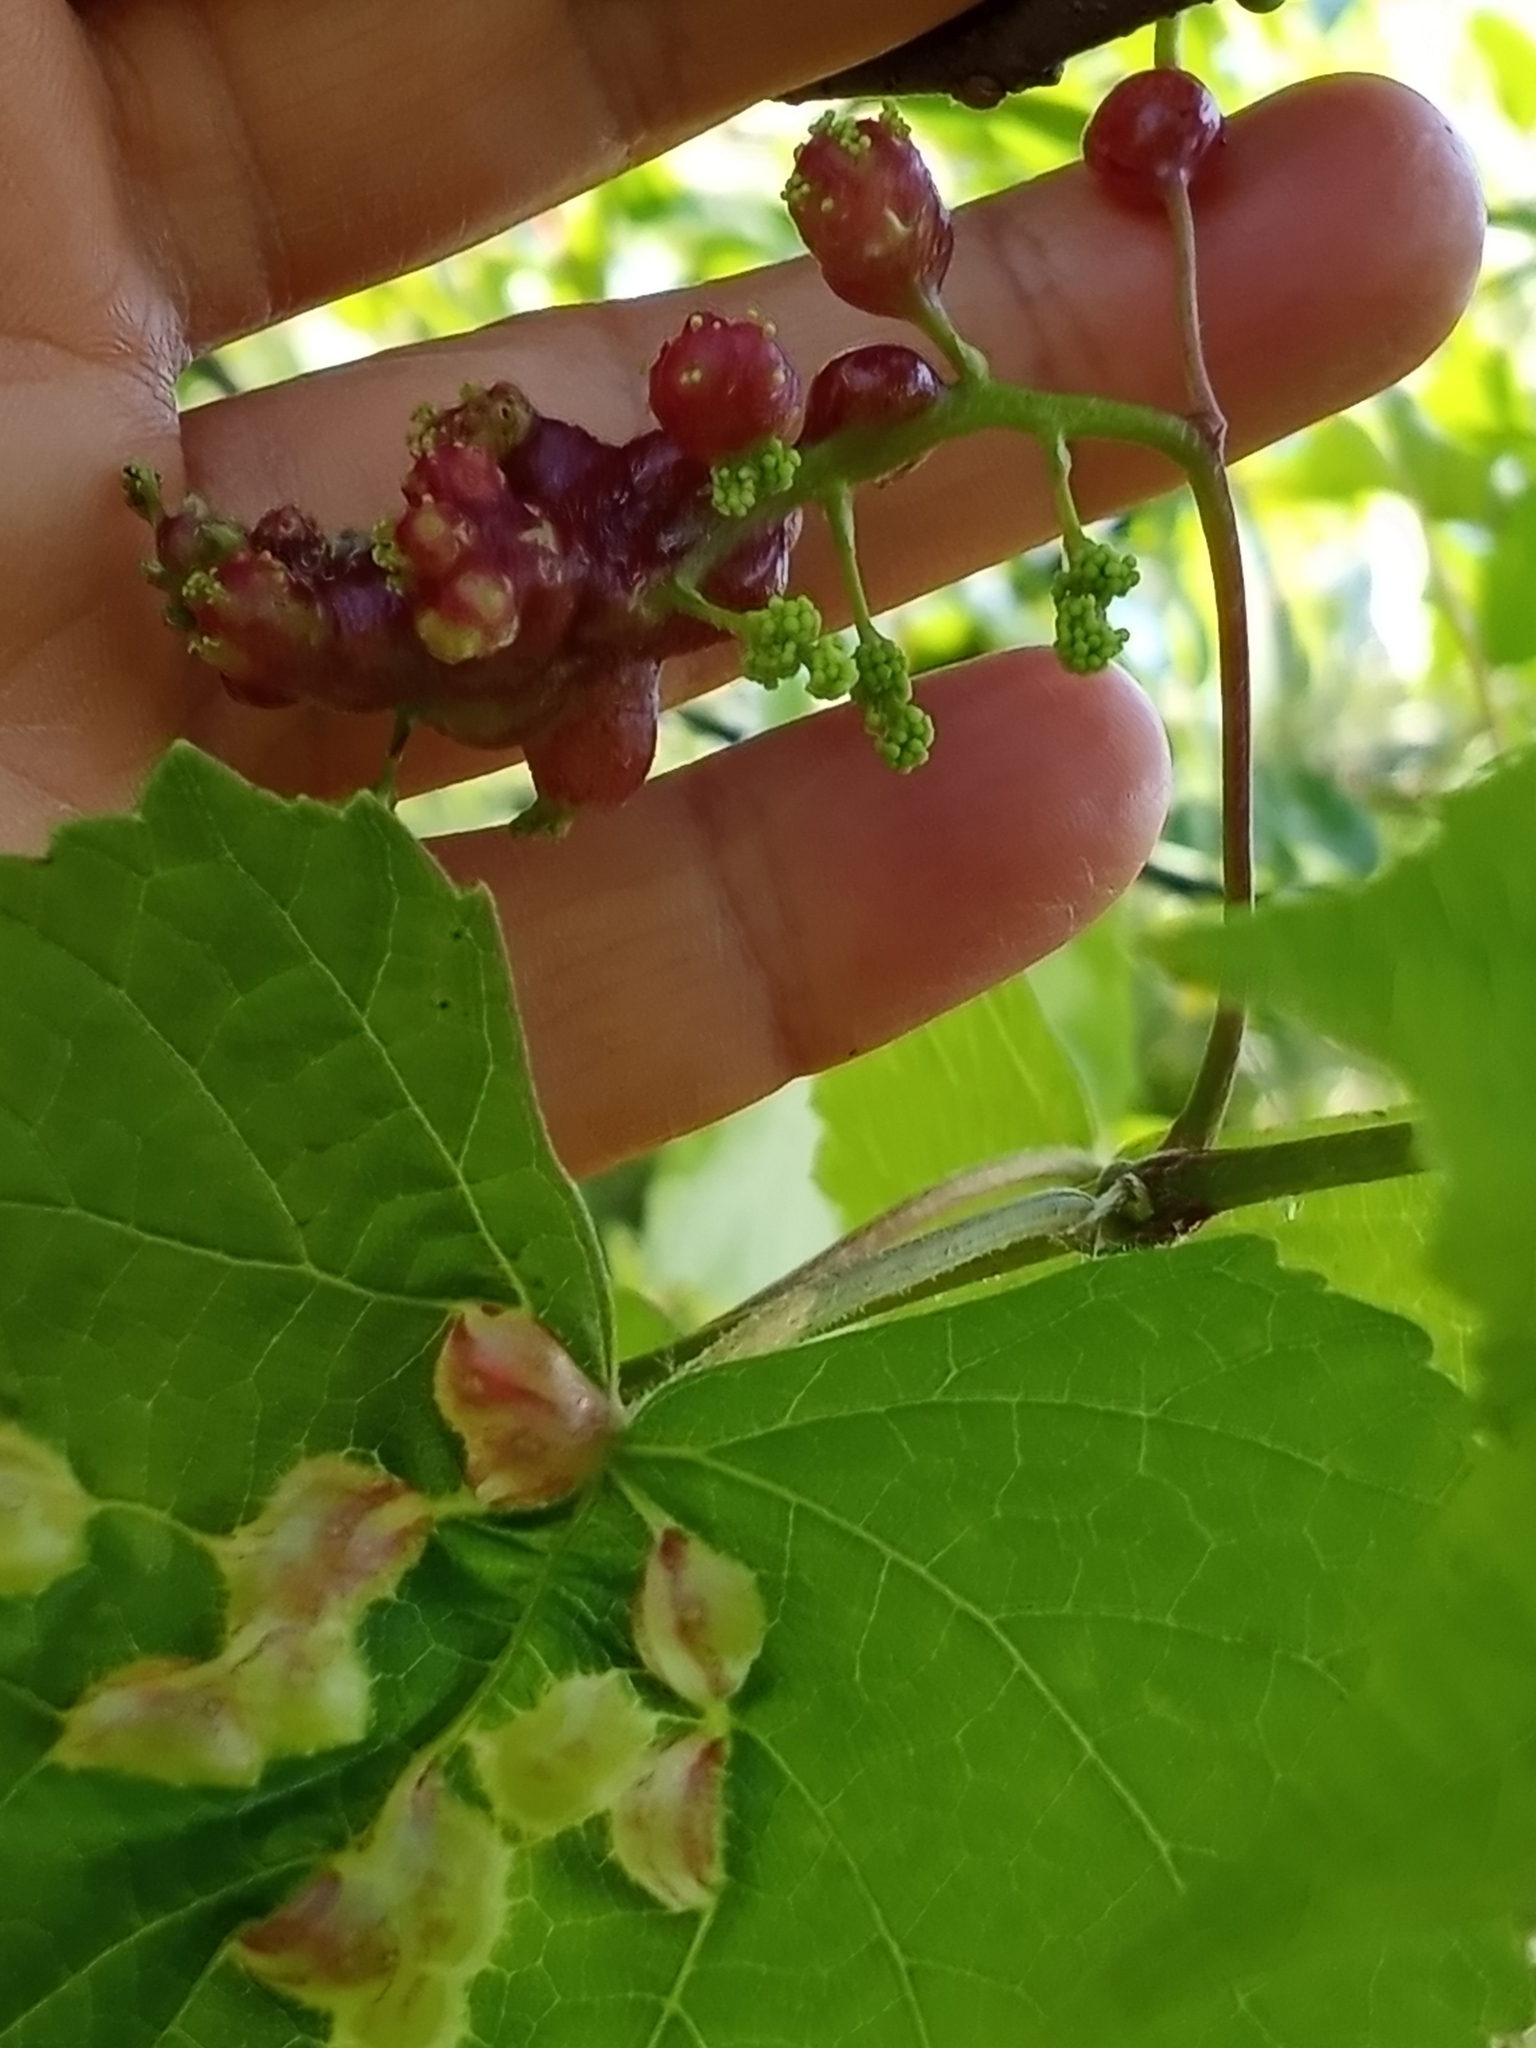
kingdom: Animalia
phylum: Arthropoda
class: Insecta
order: Diptera
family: Cecidomyiidae
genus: Vitisiella
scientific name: Vitisiella brevicauda
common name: Grape tumid gallmaker midge
